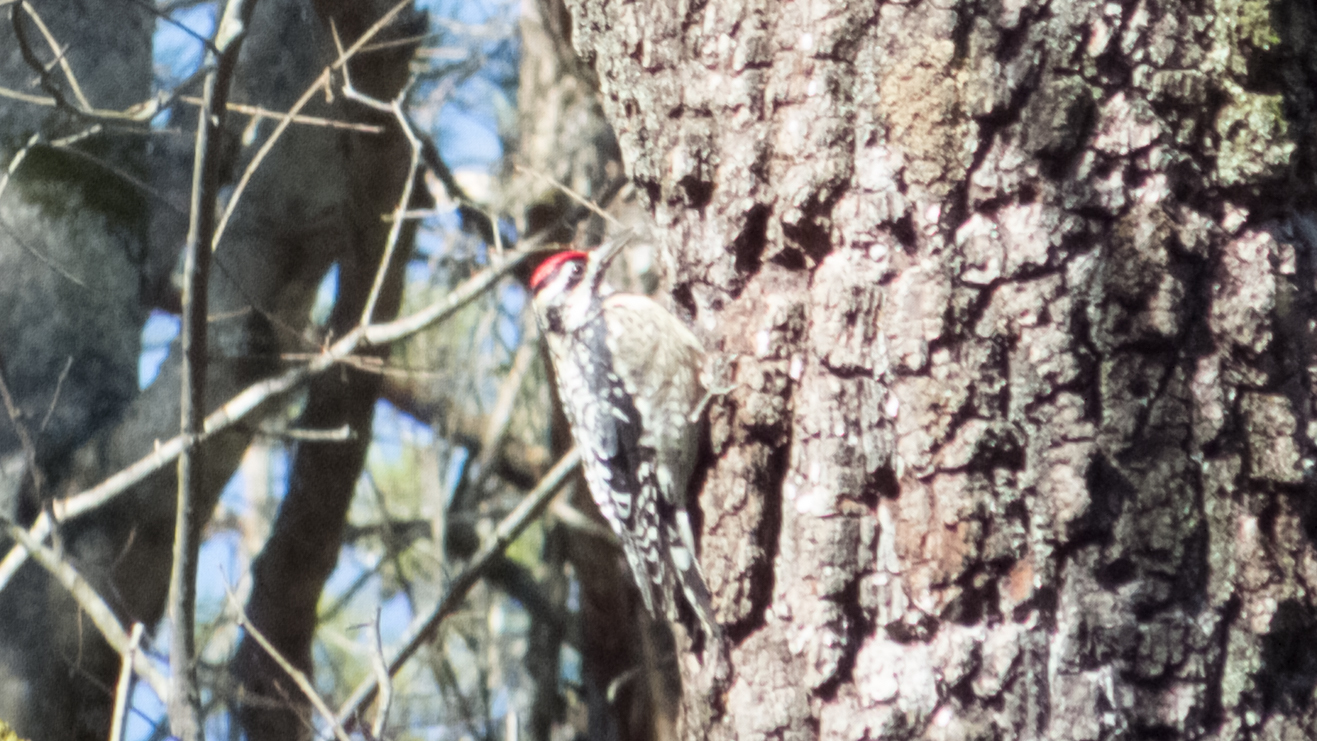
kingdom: Animalia
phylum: Chordata
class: Aves
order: Piciformes
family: Picidae
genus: Sphyrapicus
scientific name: Sphyrapicus varius
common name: Yellow-bellied sapsucker
